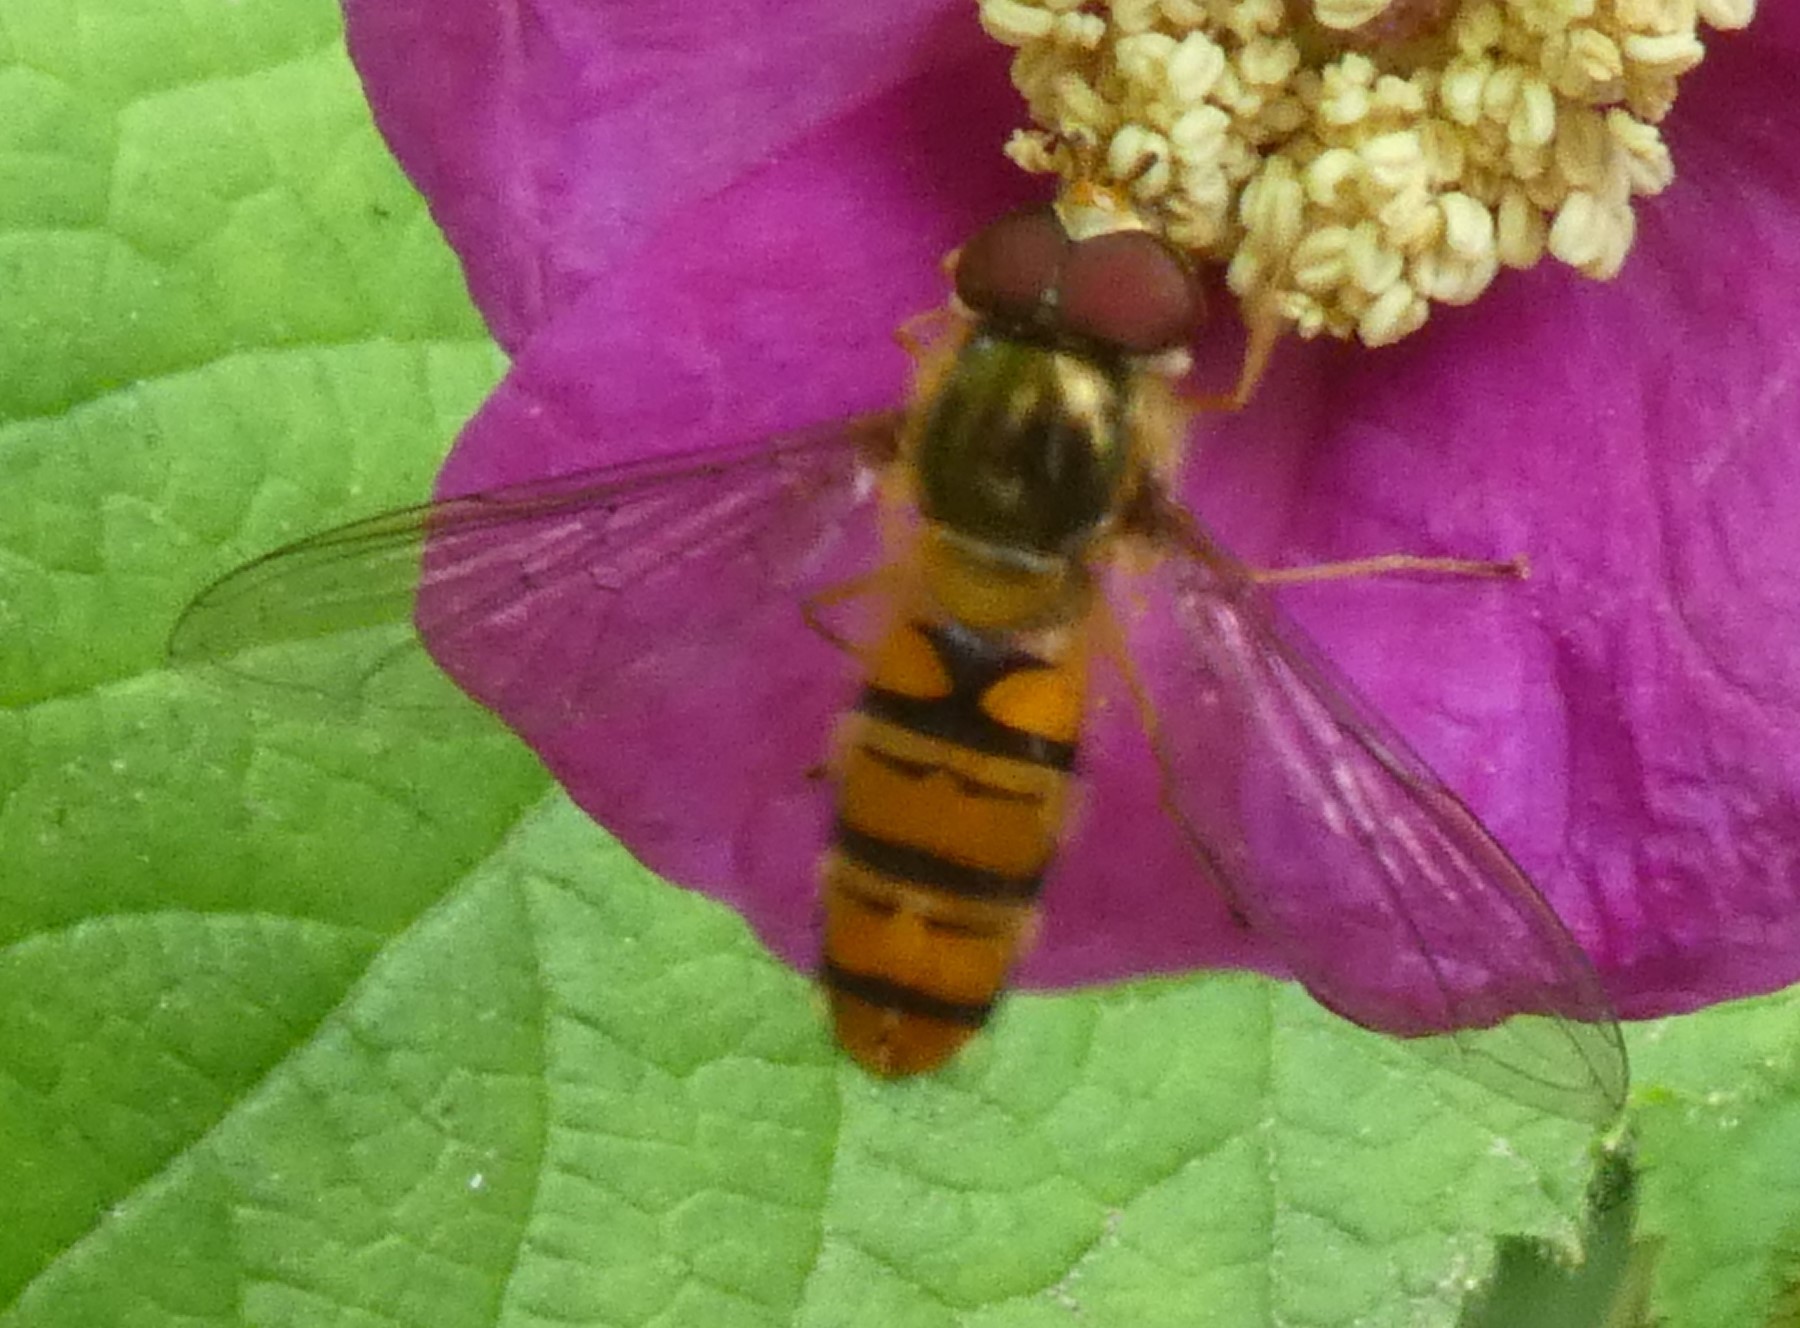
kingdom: Animalia
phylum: Arthropoda
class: Insecta
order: Diptera
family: Syrphidae
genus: Episyrphus
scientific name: Episyrphus balteatus
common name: Marmalade hoverfly
